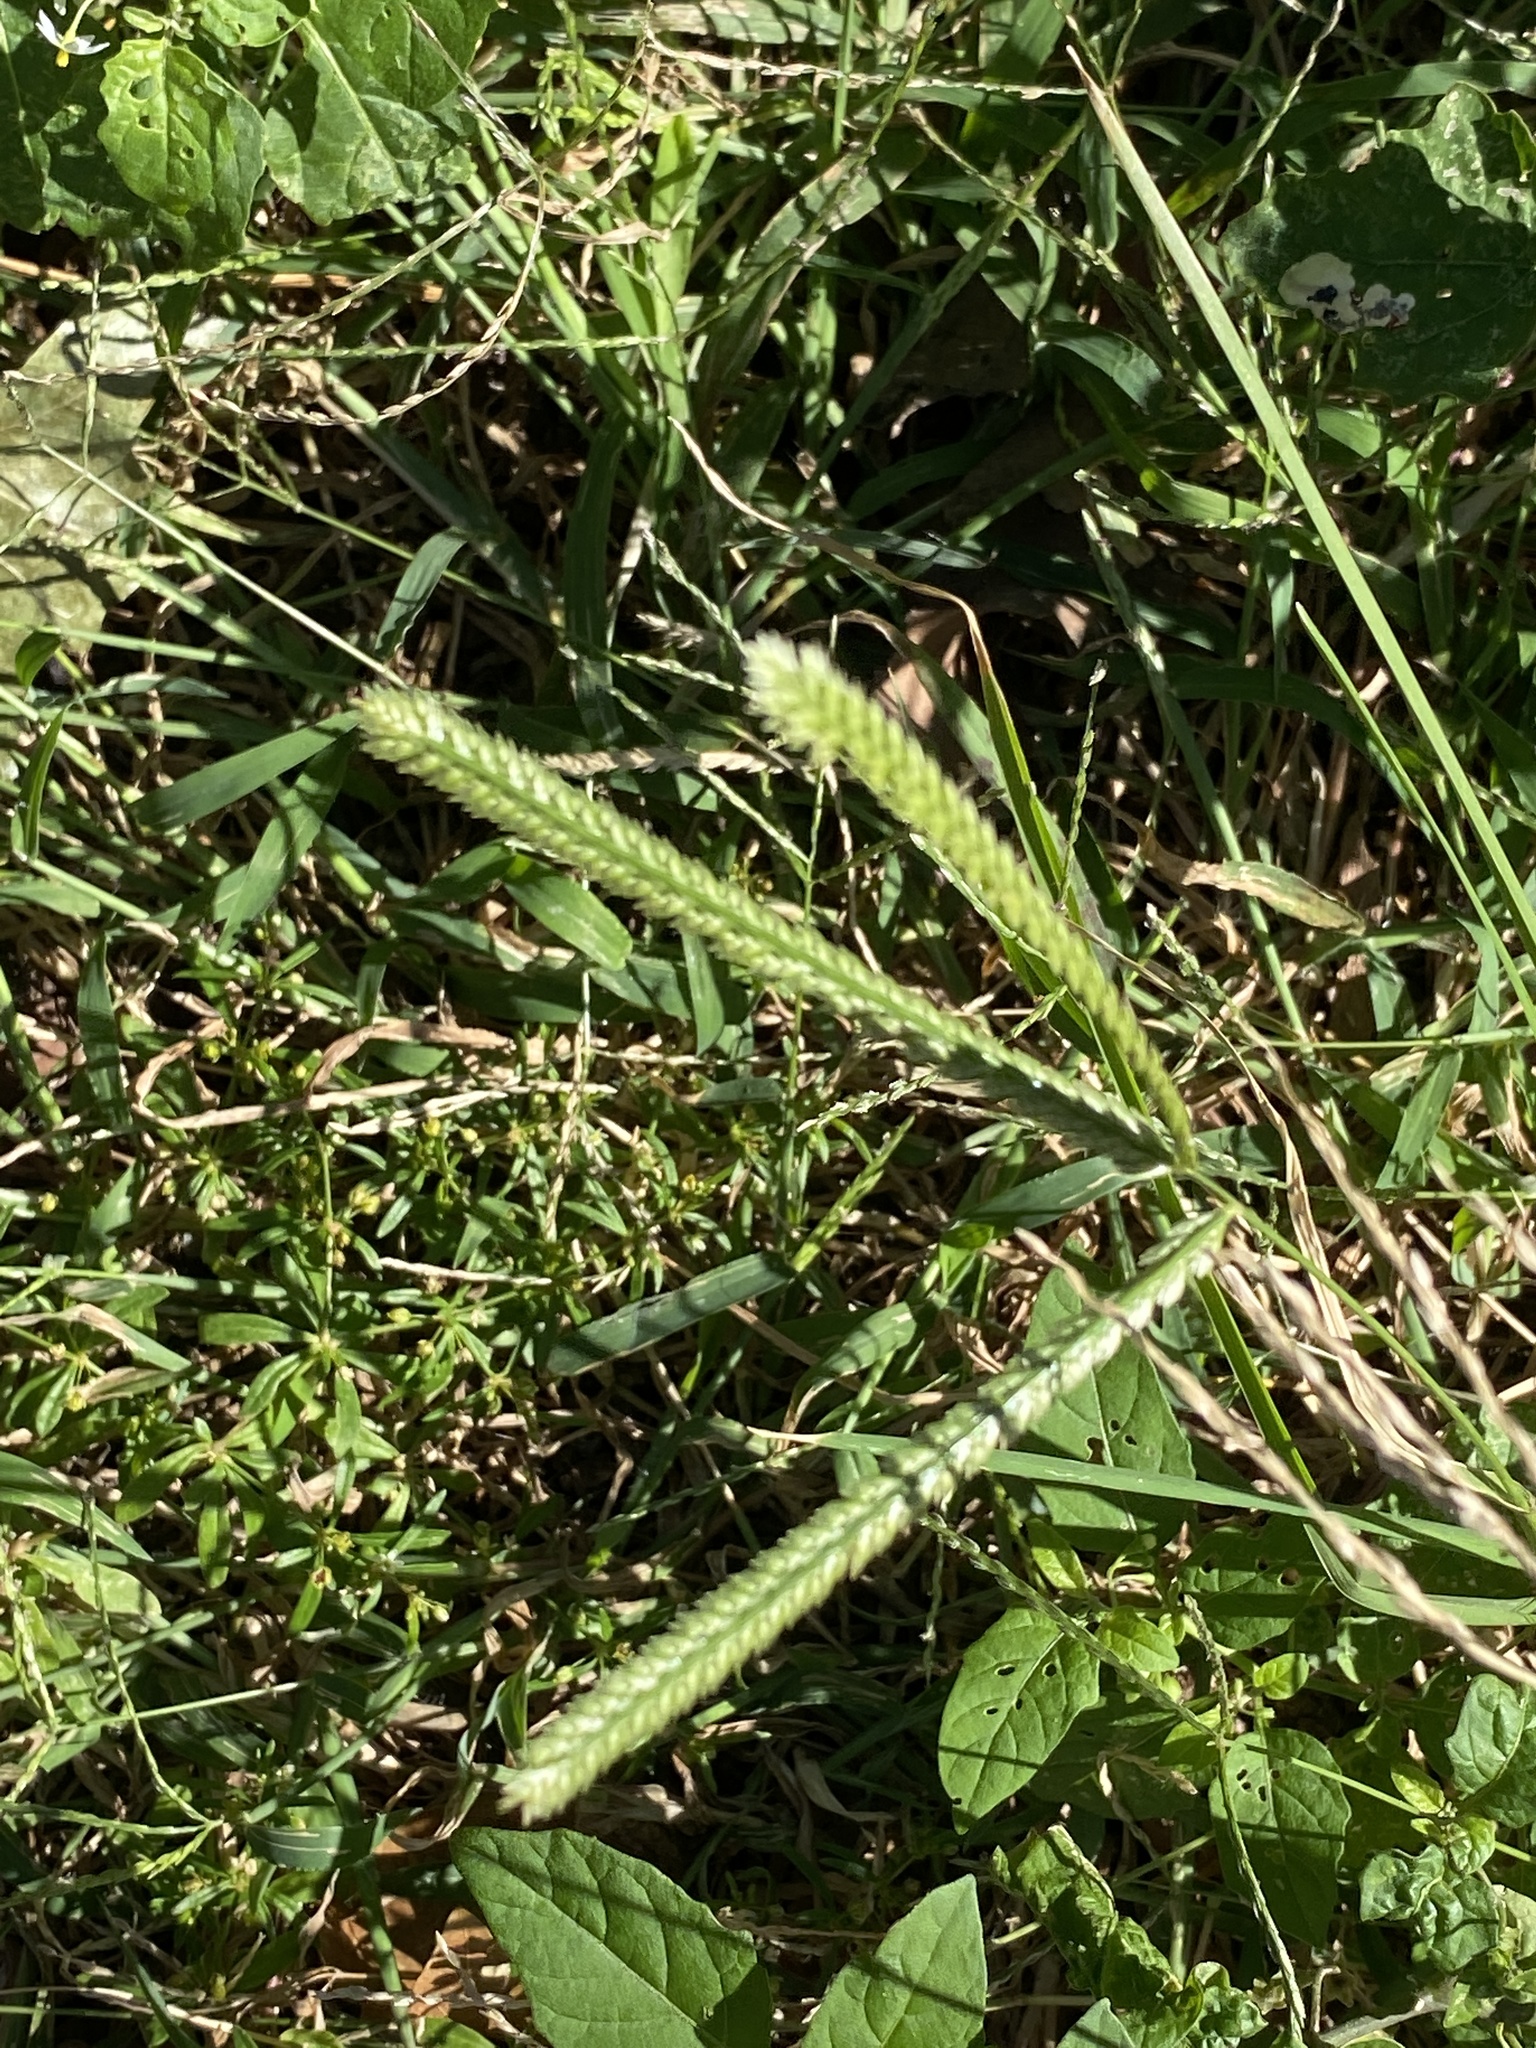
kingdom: Plantae
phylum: Tracheophyta
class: Liliopsida
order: Poales
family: Poaceae
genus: Eleusine
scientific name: Eleusine indica
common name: Yard-grass
